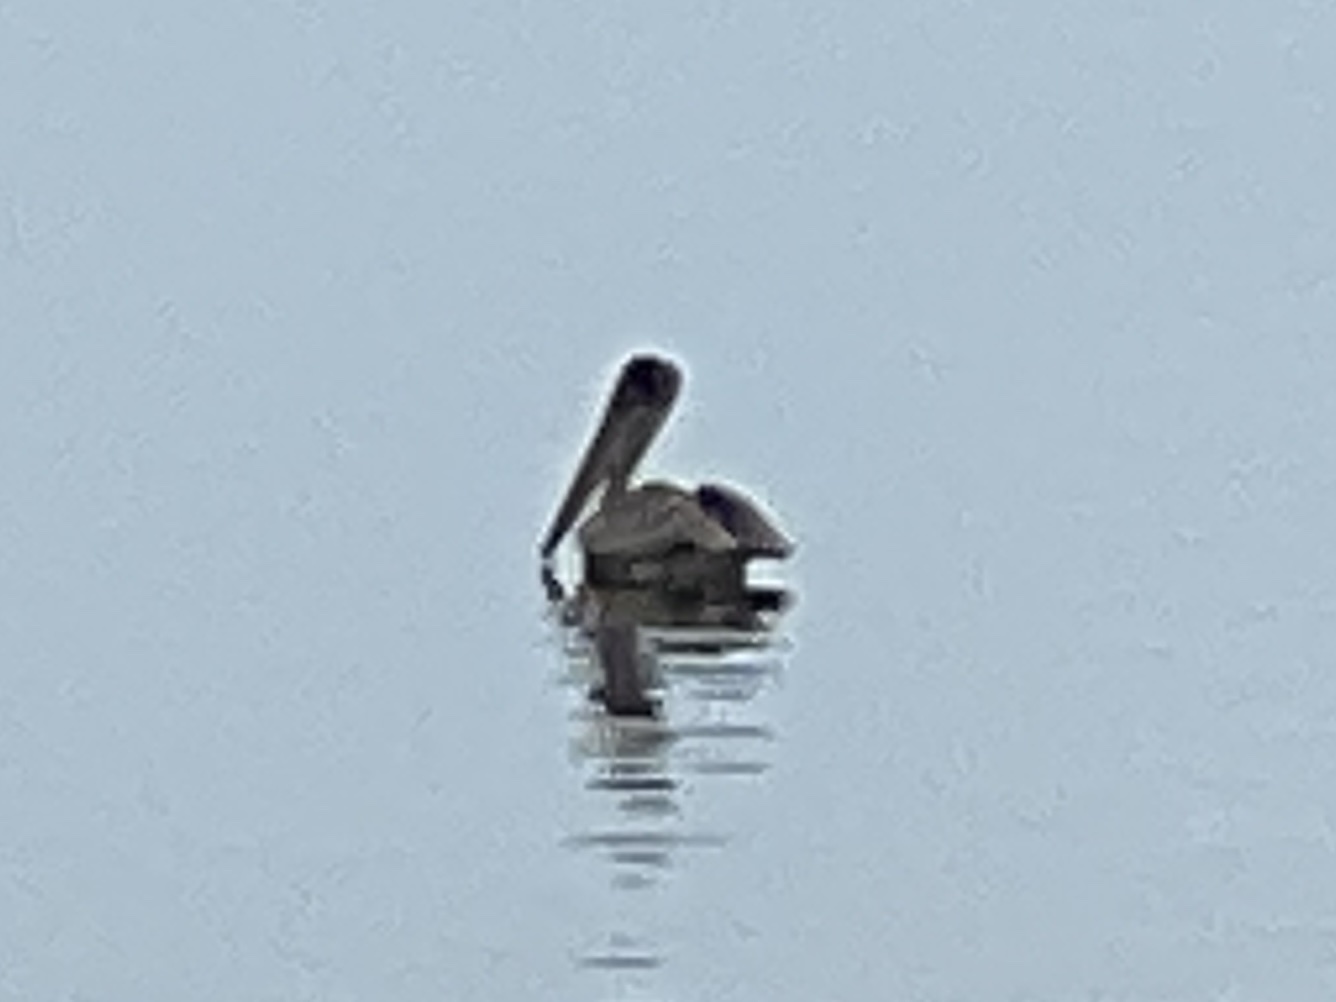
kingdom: Animalia
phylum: Chordata
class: Aves
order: Pelecaniformes
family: Pelecanidae
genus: Pelecanus
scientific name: Pelecanus occidentalis
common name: Brown pelican
